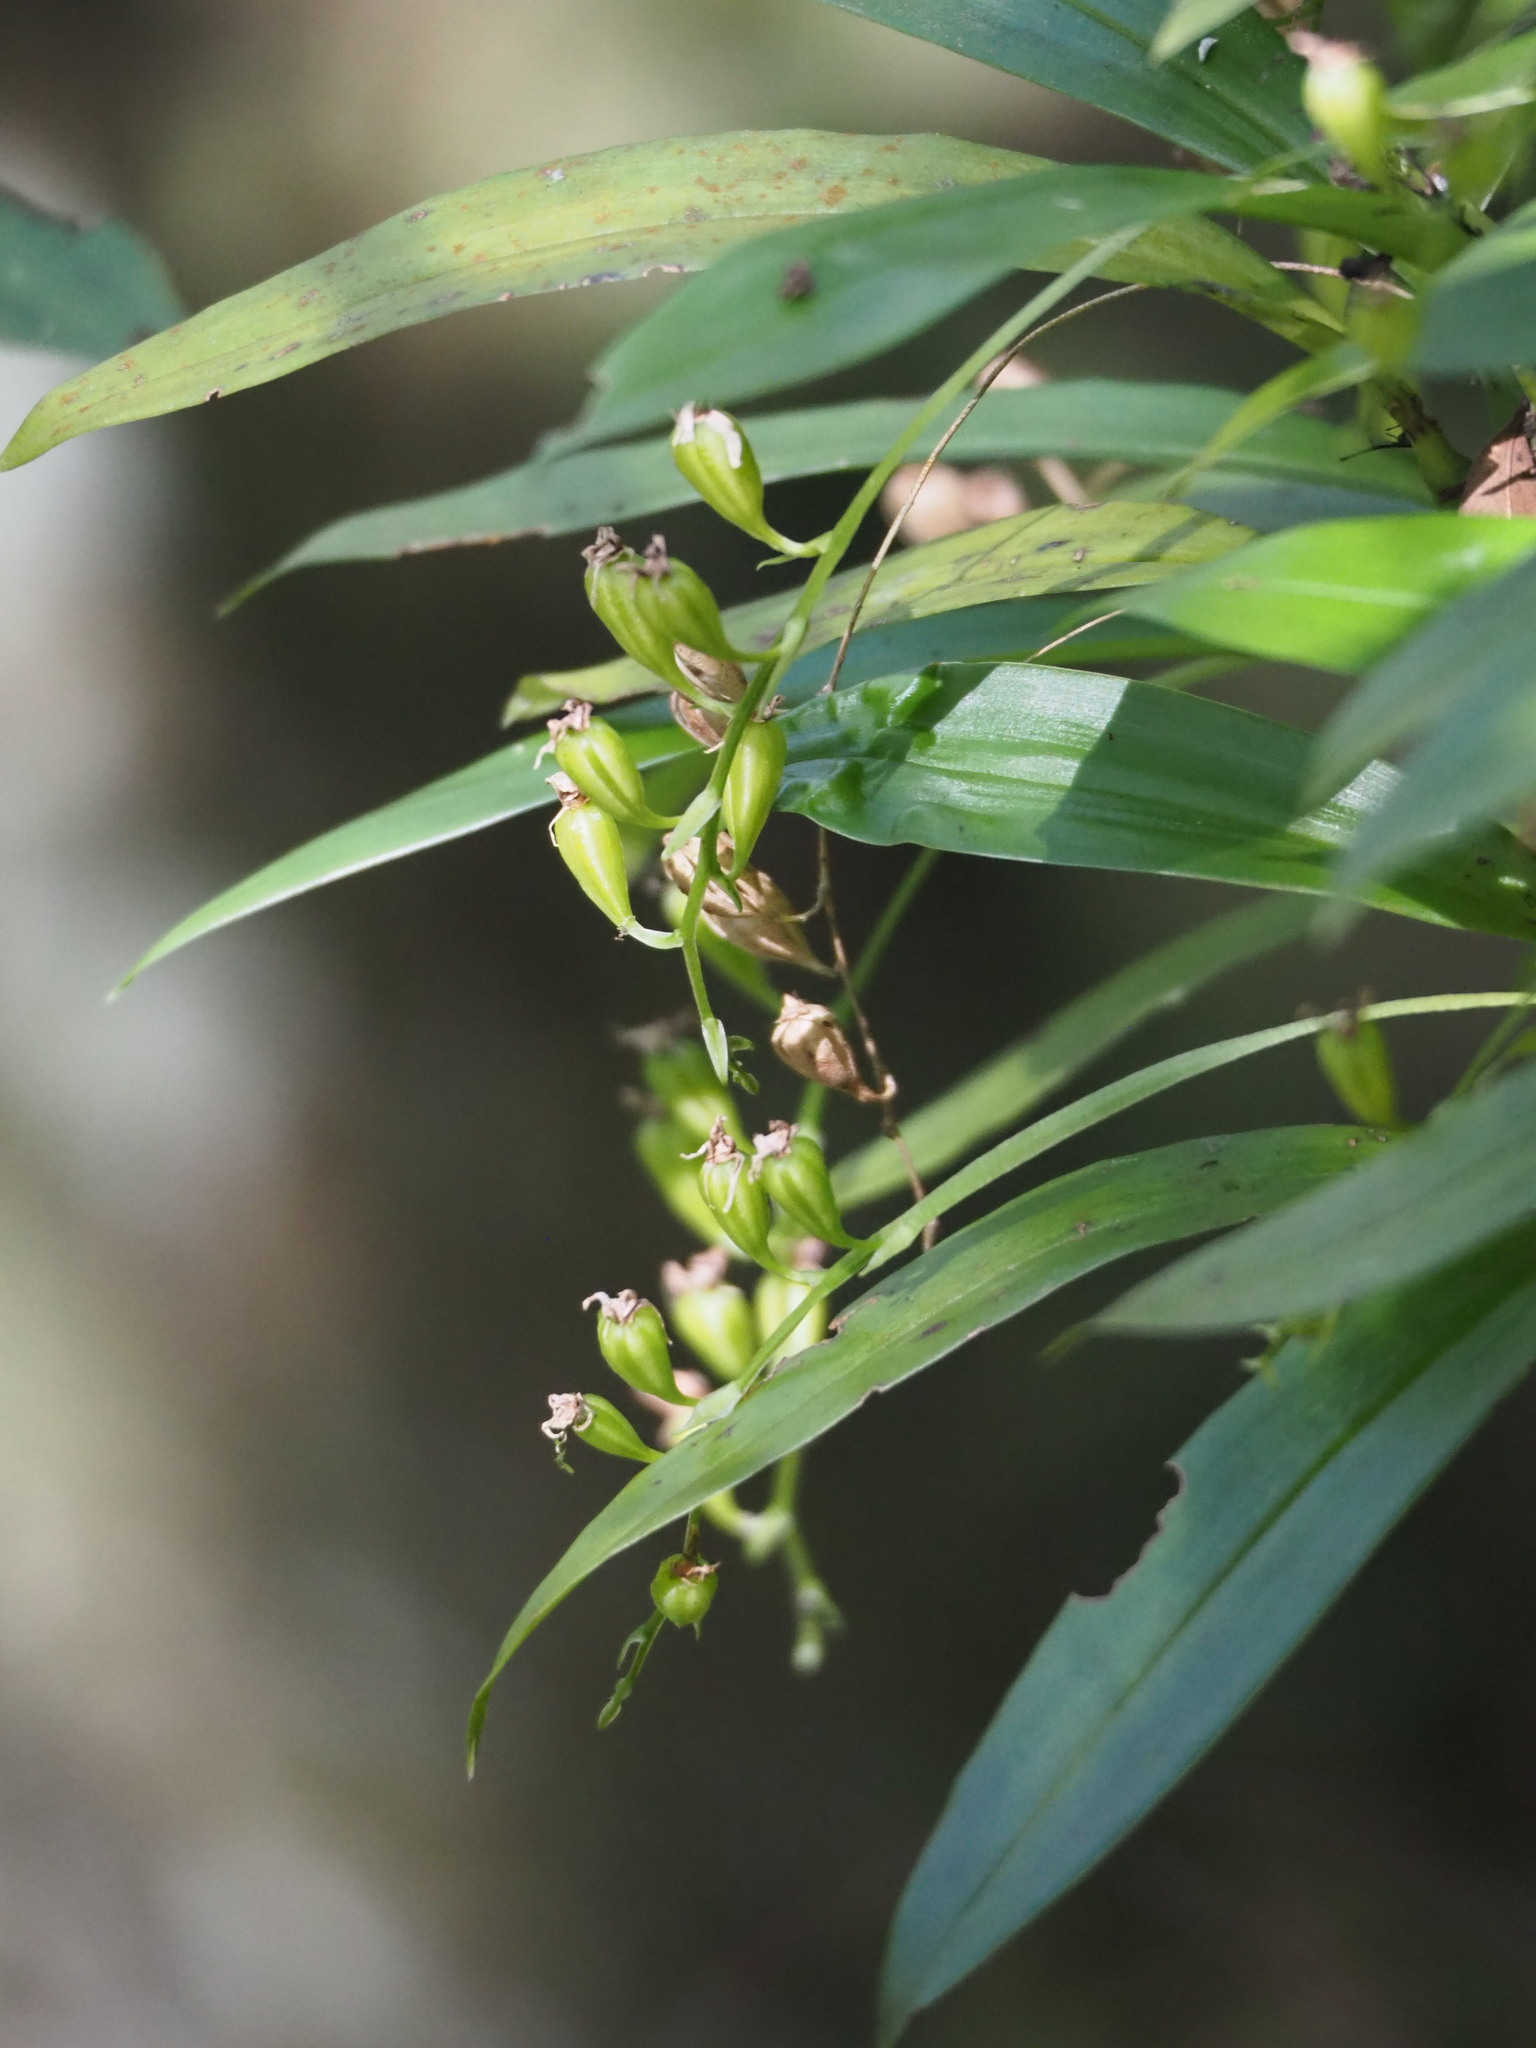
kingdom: Plantae
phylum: Tracheophyta
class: Liliopsida
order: Asparagales
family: Orchidaceae
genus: Liparis
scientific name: Liparis bootanensis
